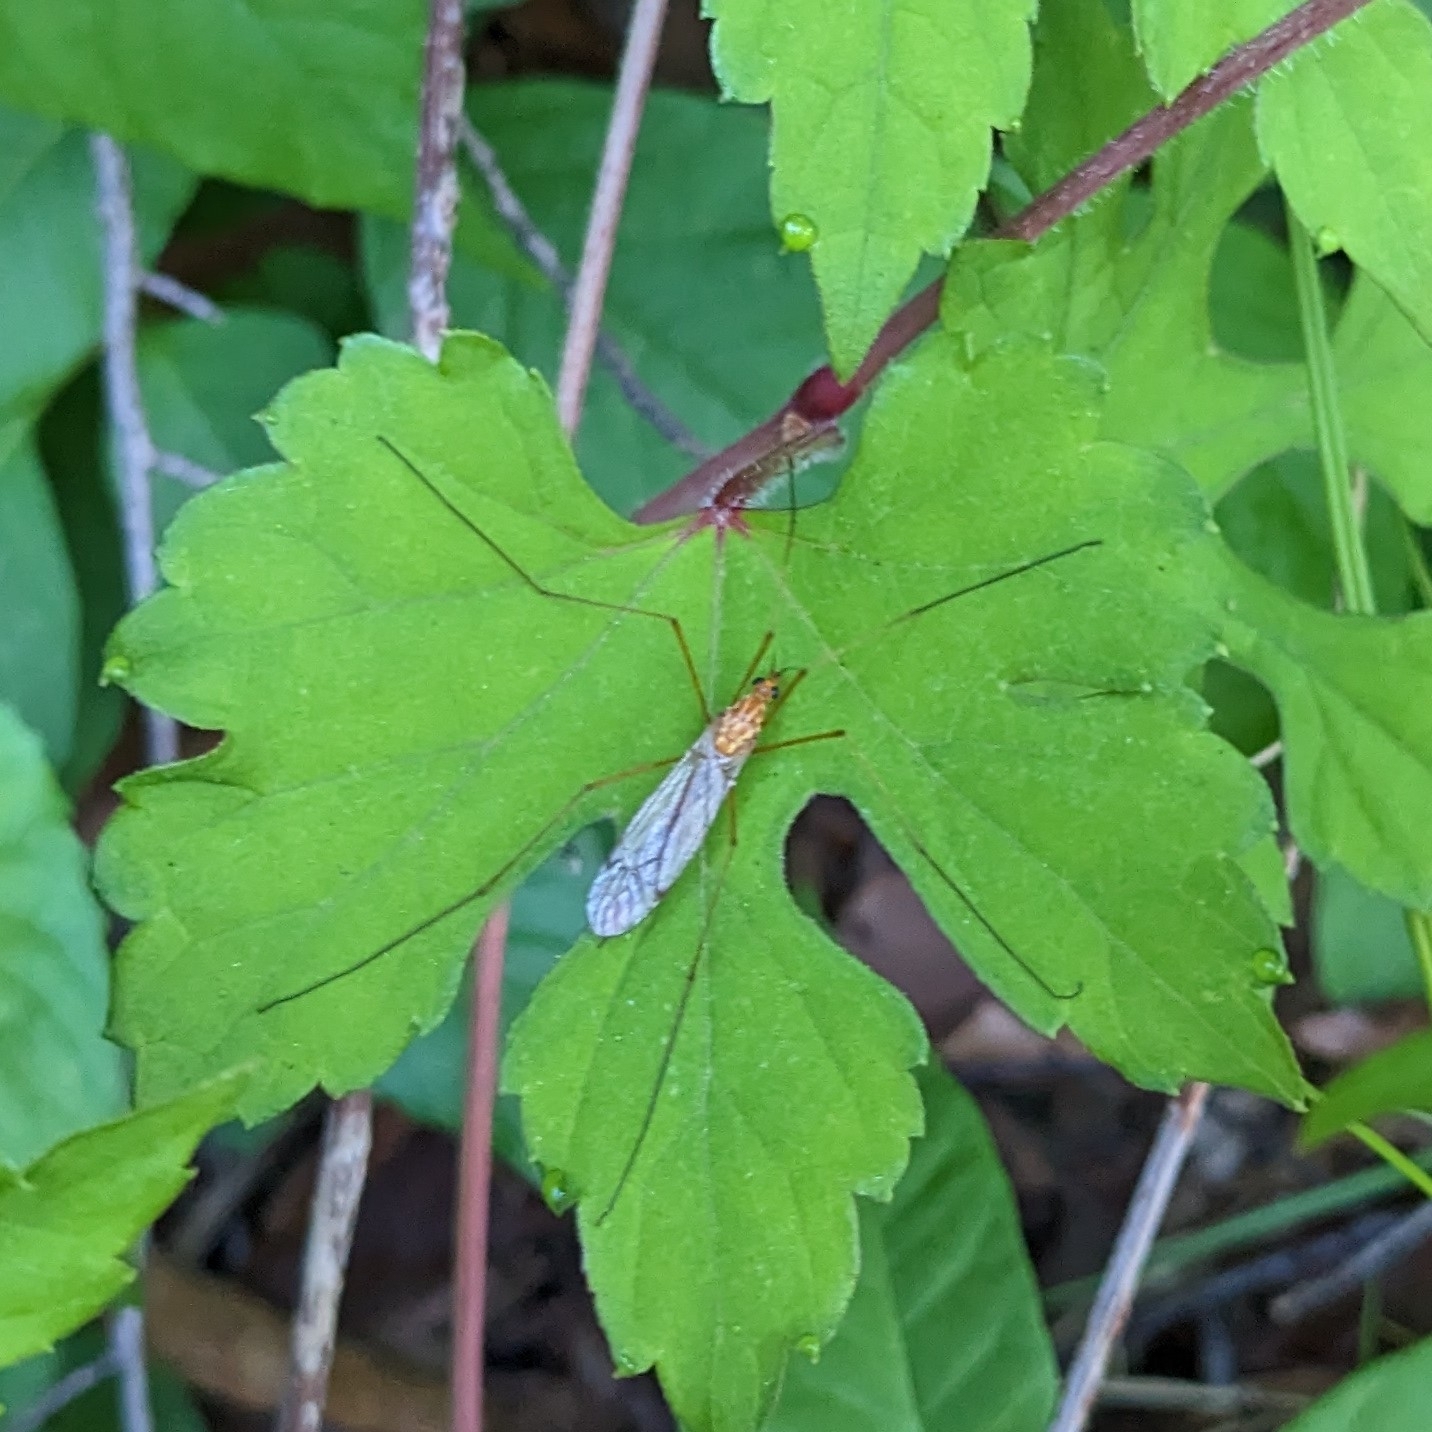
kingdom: Animalia
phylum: Arthropoda
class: Insecta
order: Diptera
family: Tipulidae
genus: Nephrotoma
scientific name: Nephrotoma ferruginea
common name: Ferruginous tiger crane fly
